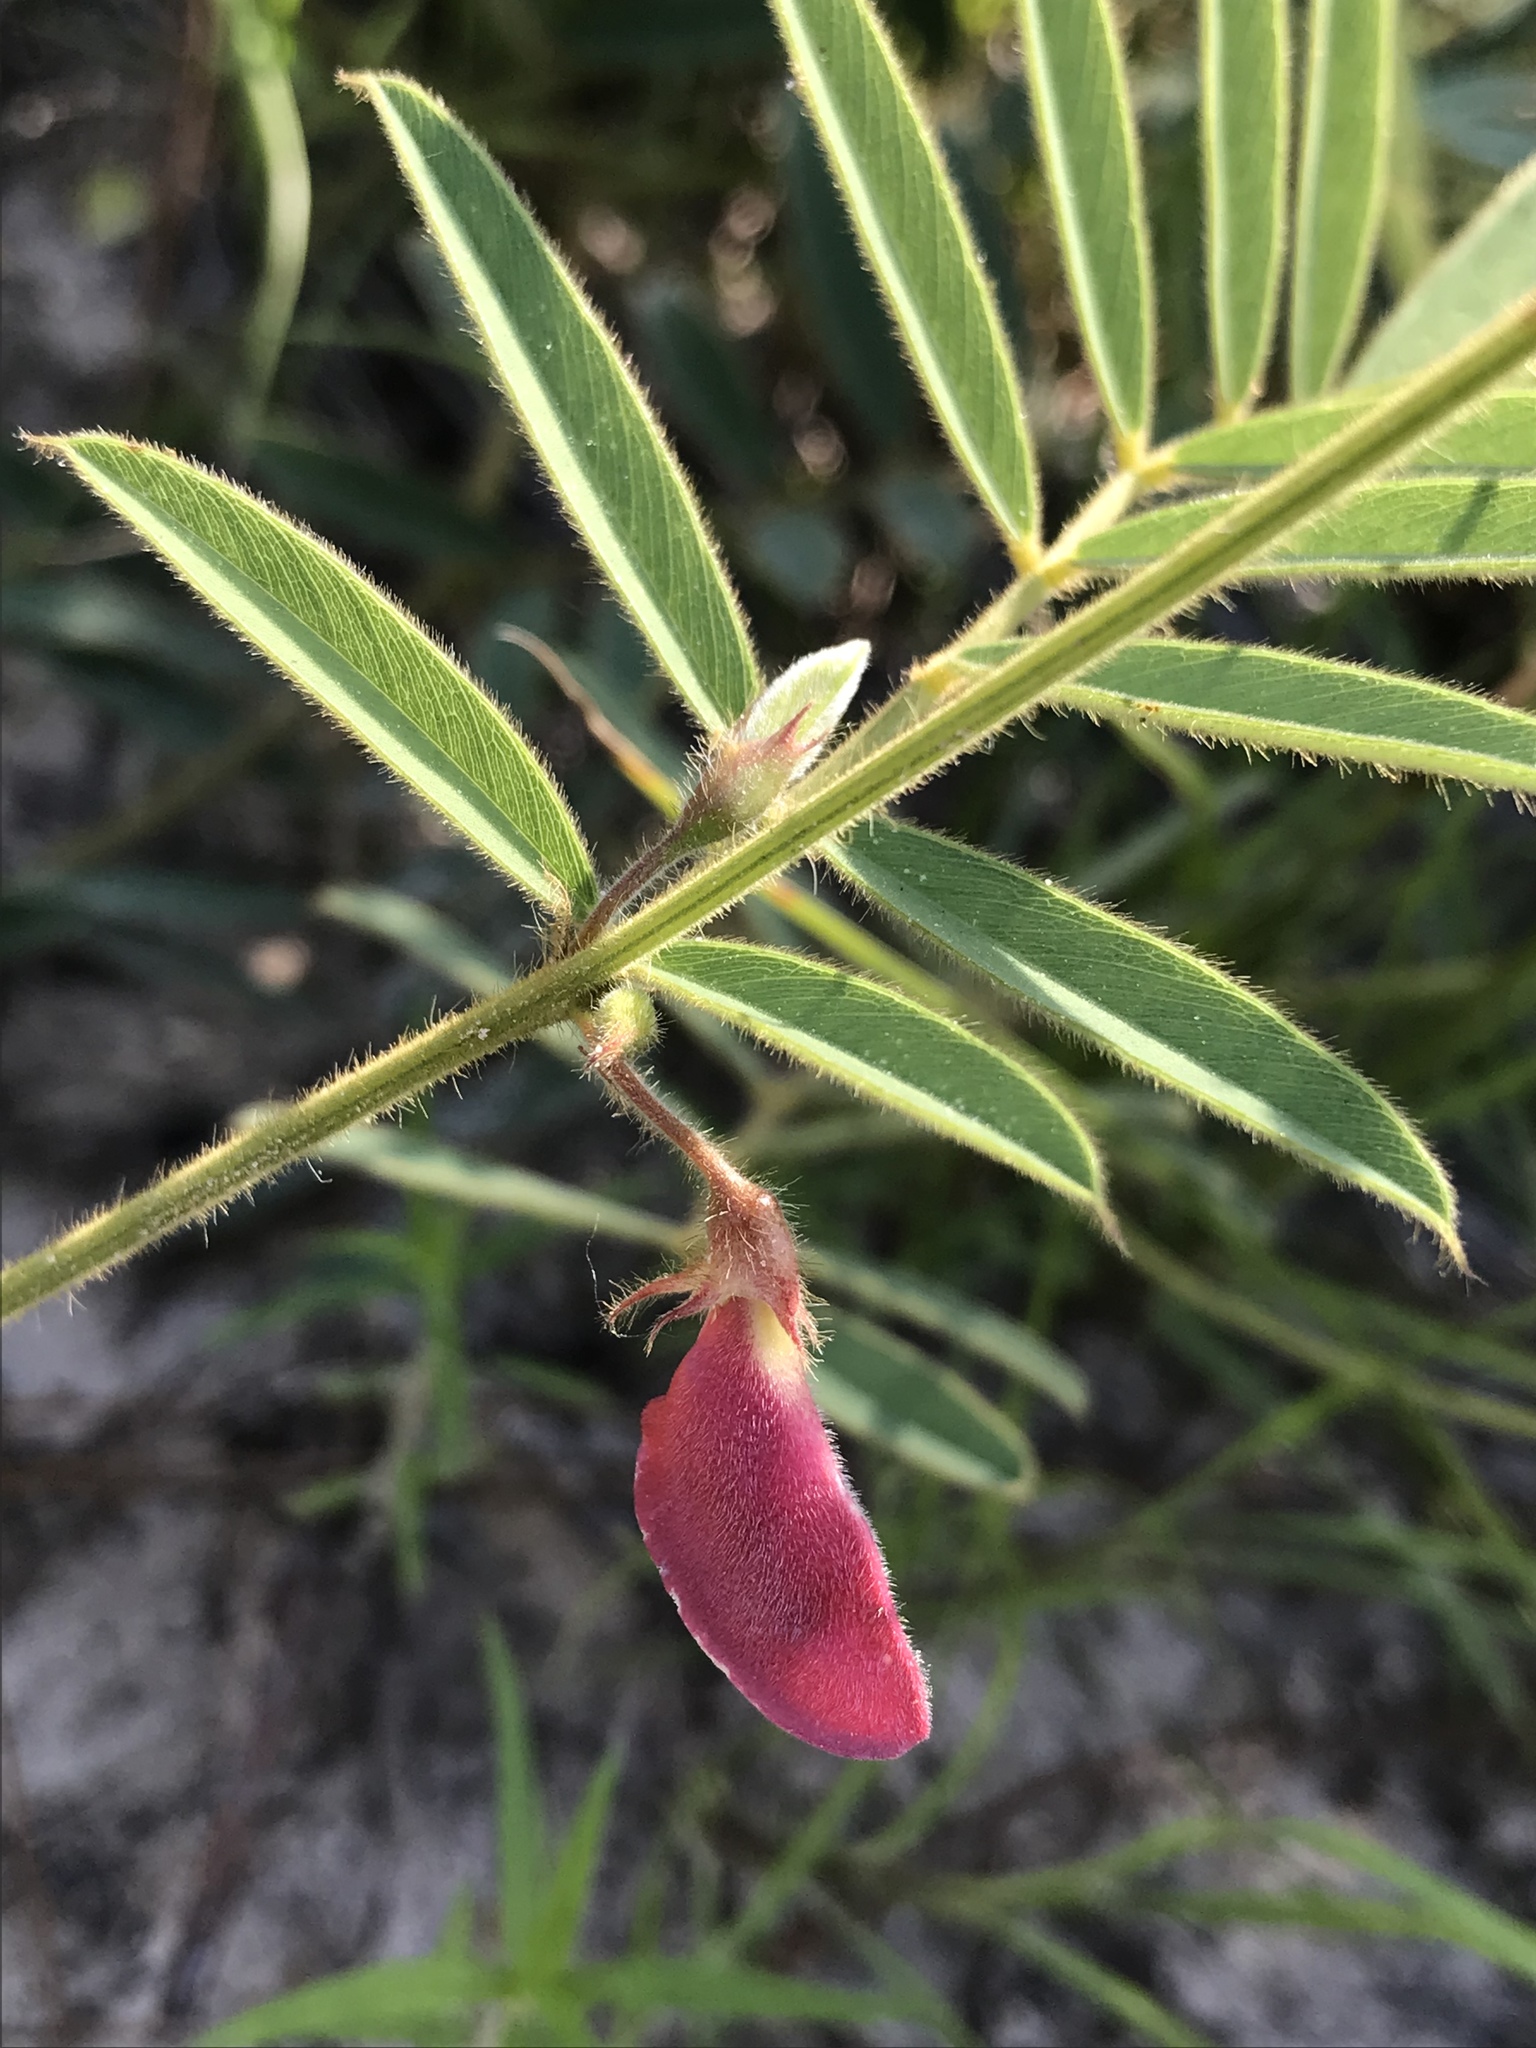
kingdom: Plantae
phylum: Tracheophyta
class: Magnoliopsida
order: Fabales
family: Fabaceae
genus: Tephrosia
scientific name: Tephrosia onobrychoides
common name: Multi-bloom hoary-pea
